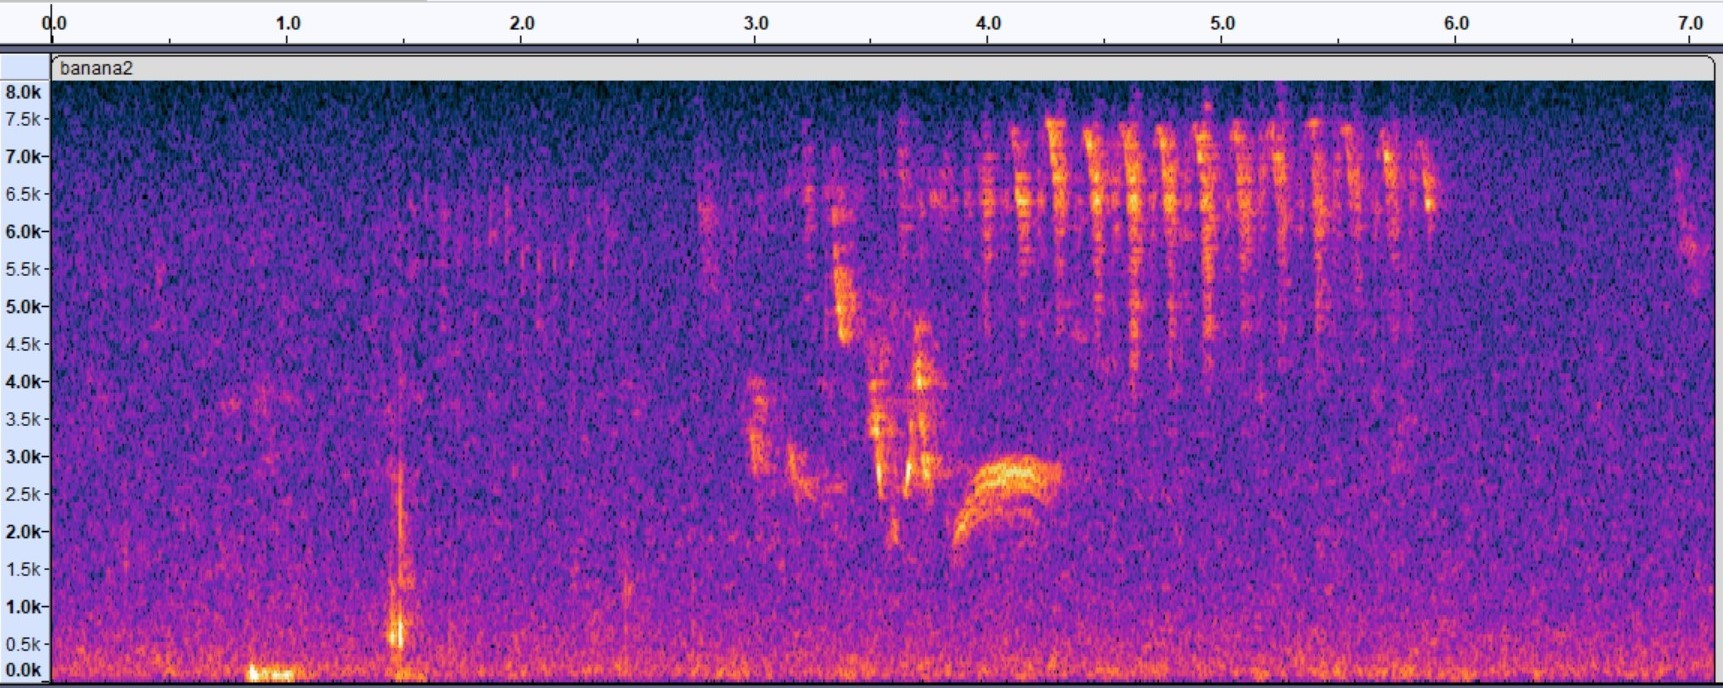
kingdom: Animalia
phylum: Chordata
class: Aves
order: Passeriformes
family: Thraupidae
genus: Coereba
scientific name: Coereba flaveola
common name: Bananaquit
